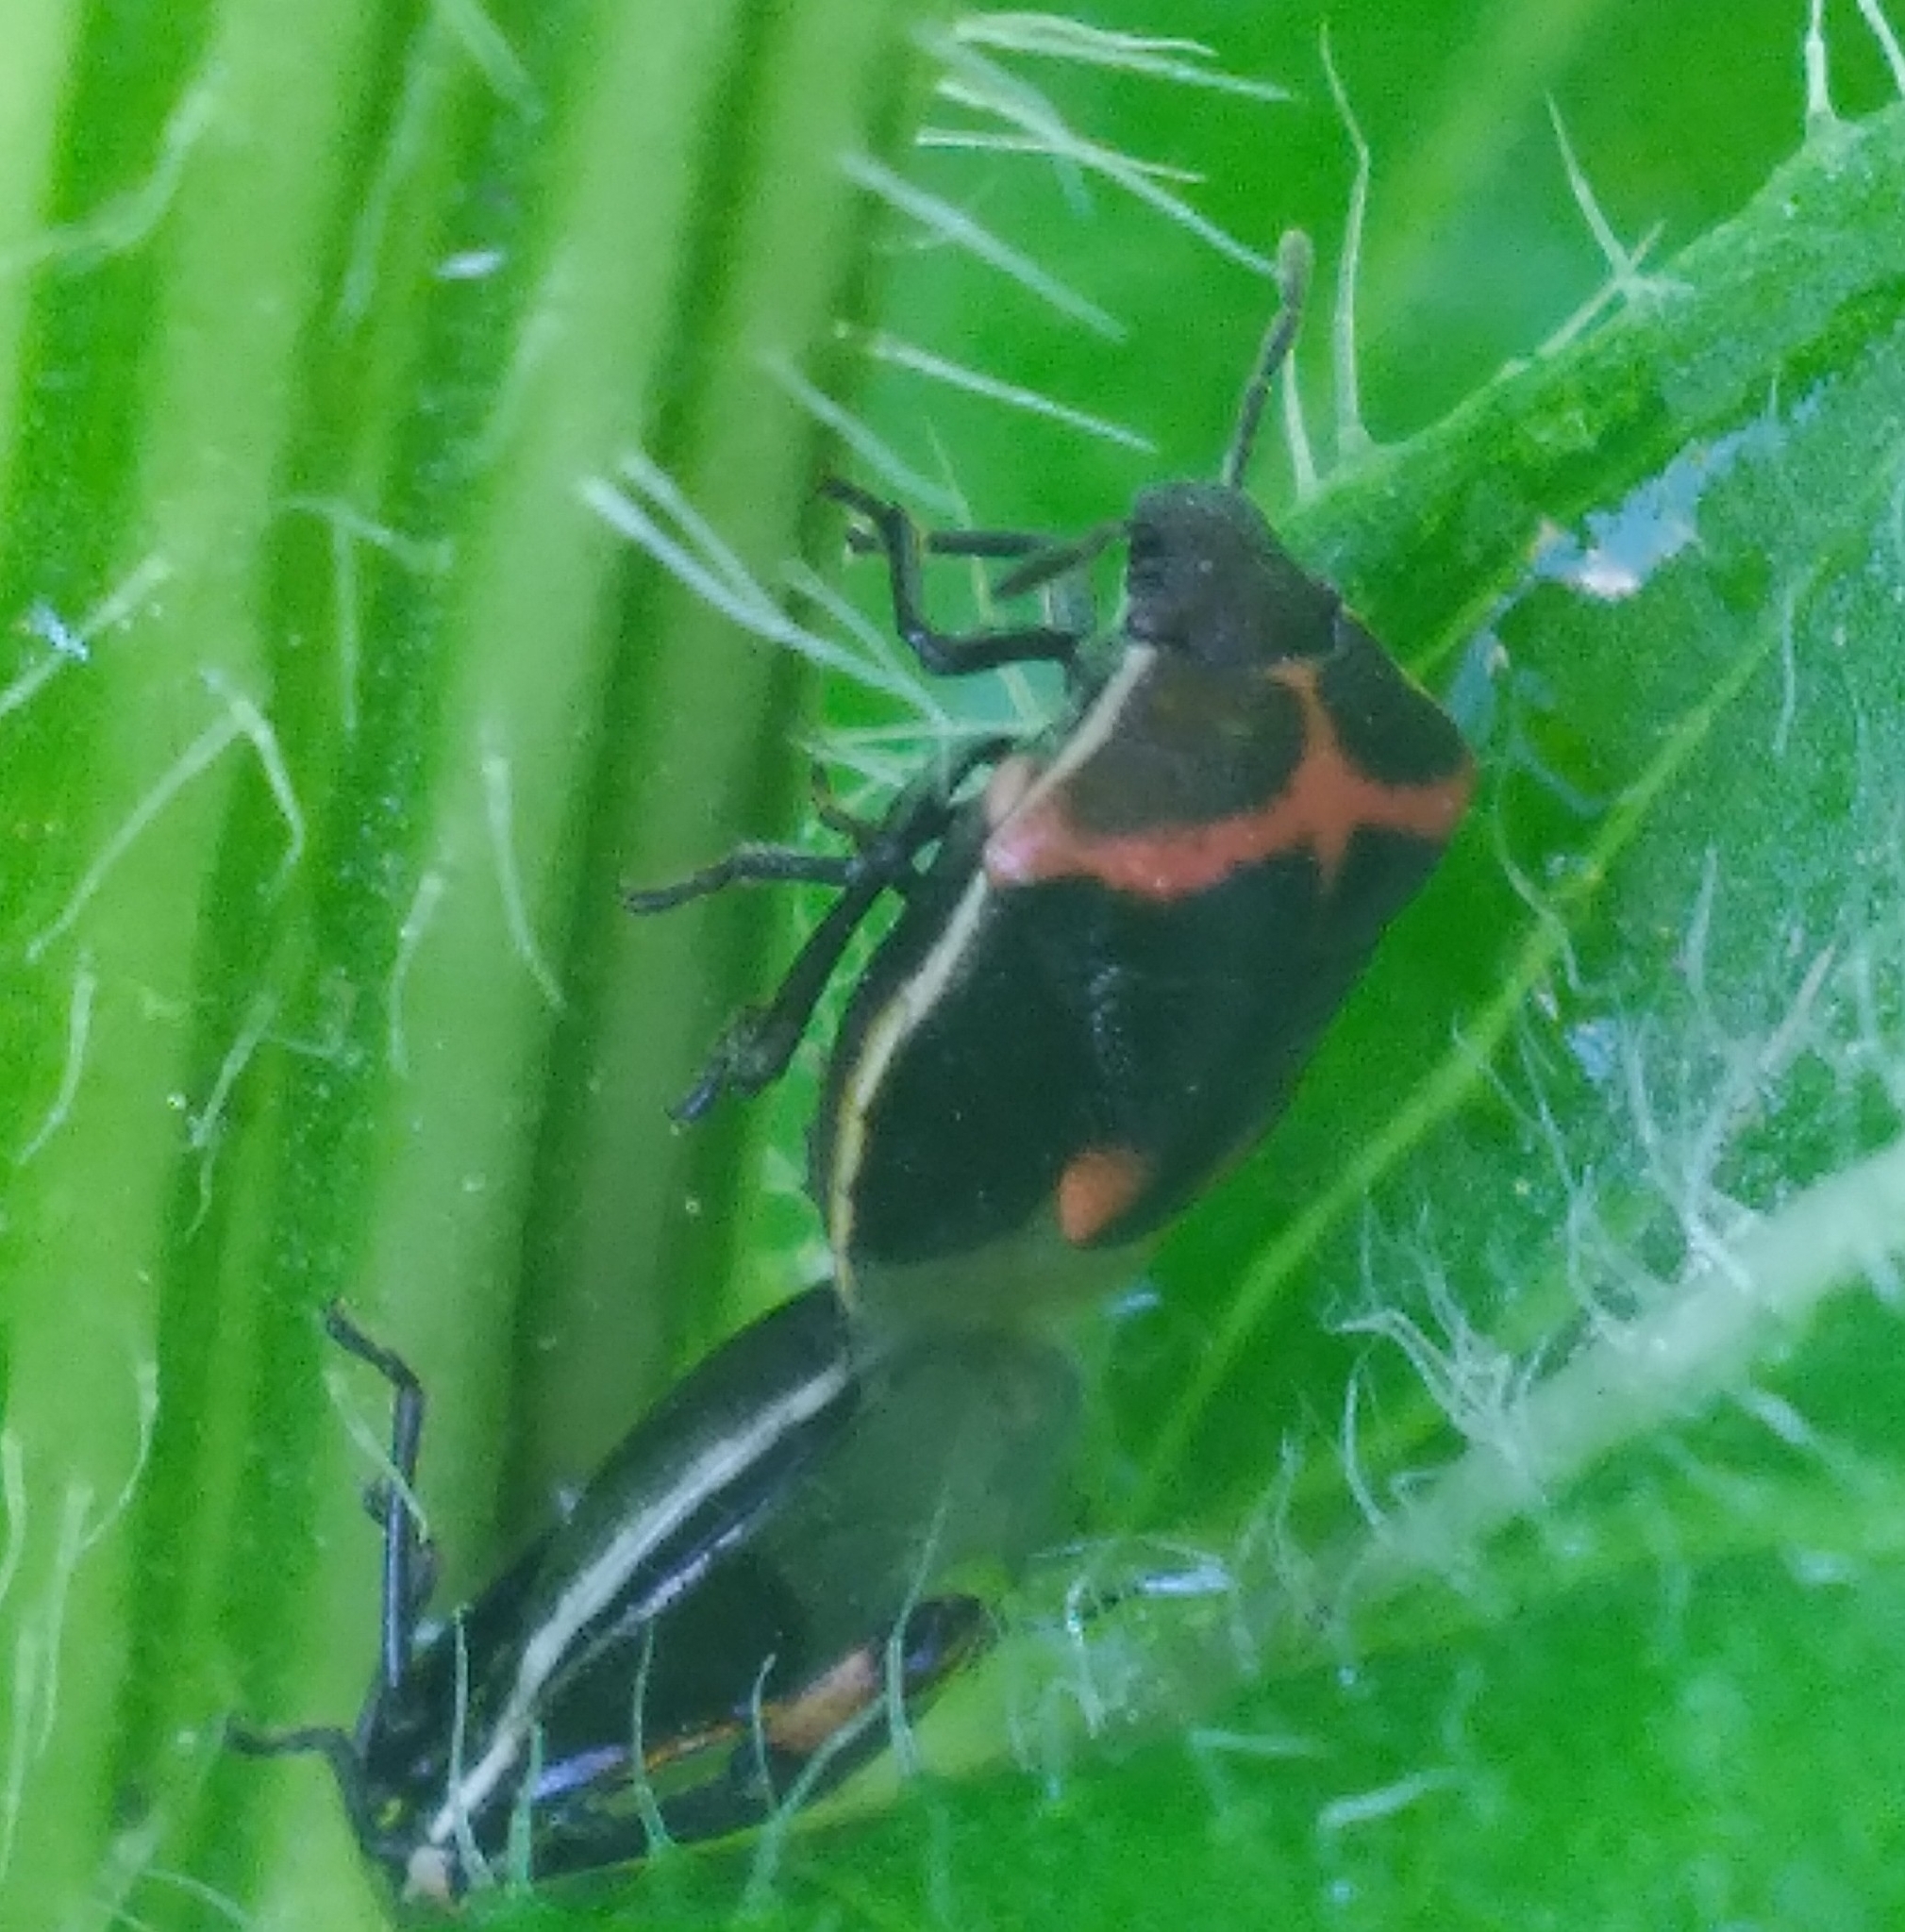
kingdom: Animalia
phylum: Arthropoda
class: Insecta
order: Hemiptera
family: Pentatomidae
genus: Cosmopepla
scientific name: Cosmopepla lintneriana
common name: Twice-stabbed stink bug
